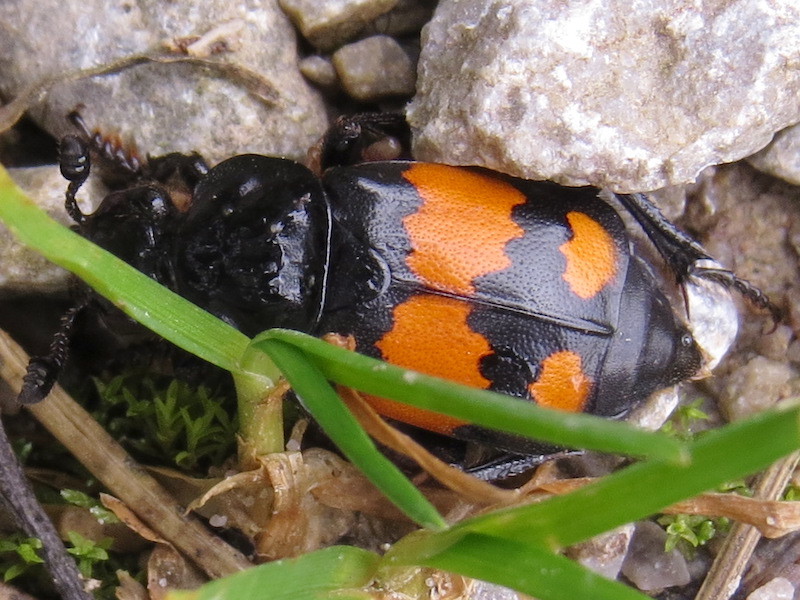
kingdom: Animalia
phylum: Arthropoda
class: Insecta
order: Coleoptera
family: Staphylinidae
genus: Nicrophorus
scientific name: Nicrophorus vespilloides
